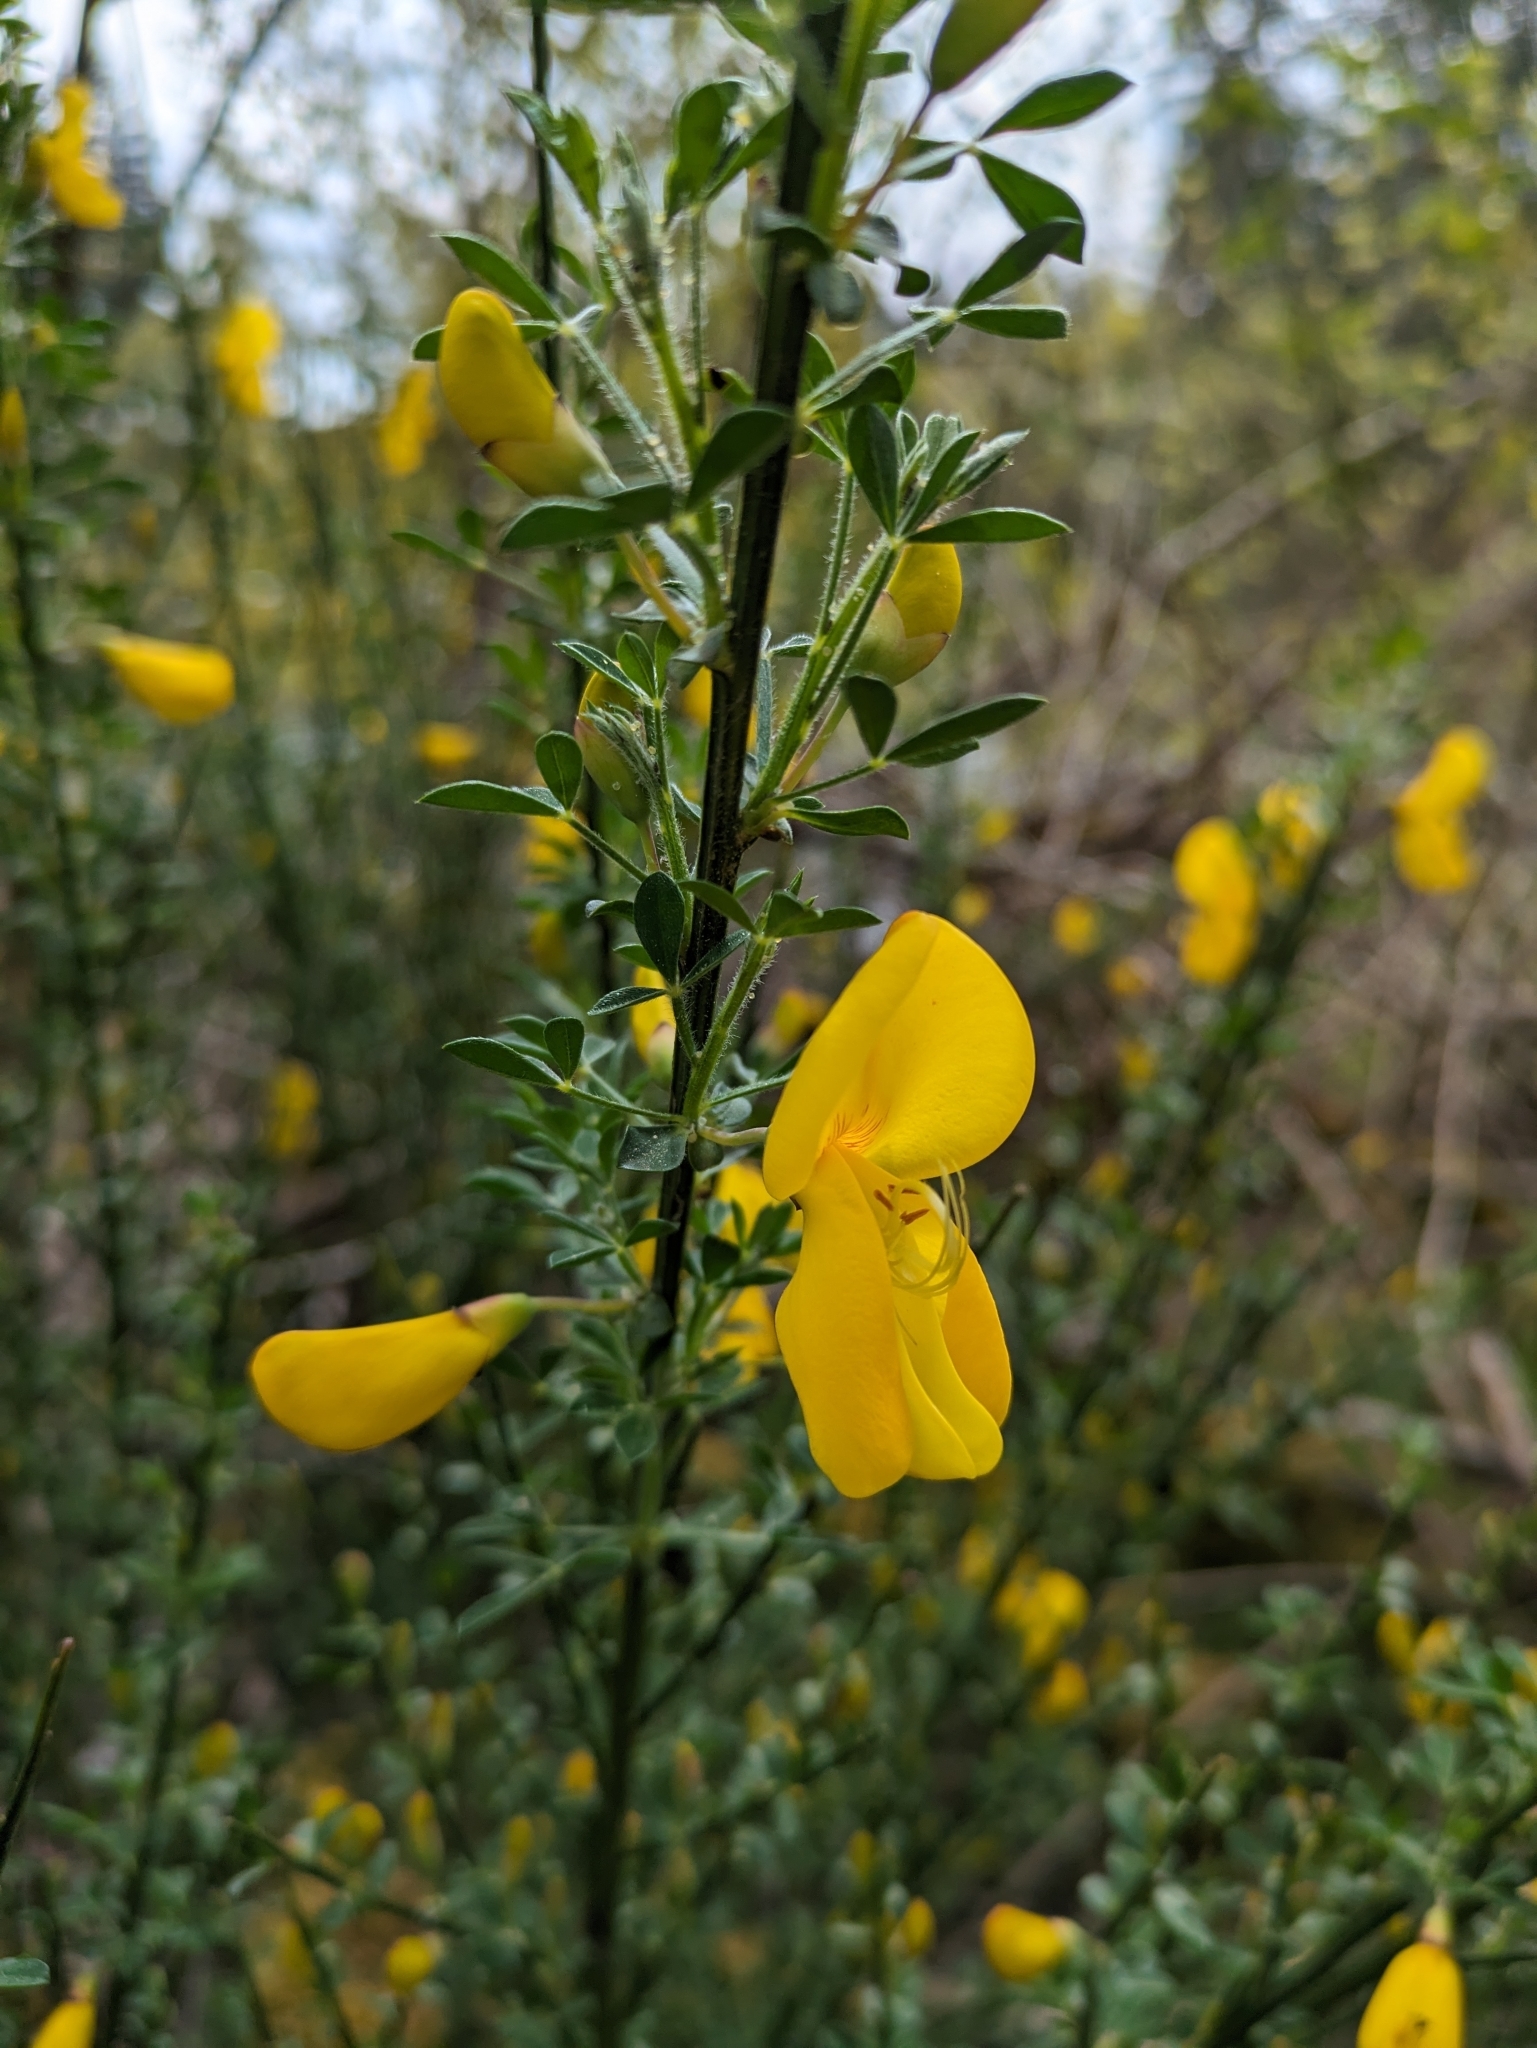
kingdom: Plantae
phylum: Tracheophyta
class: Magnoliopsida
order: Fabales
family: Fabaceae
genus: Cytisus
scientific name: Cytisus scoparius
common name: Scotch broom
